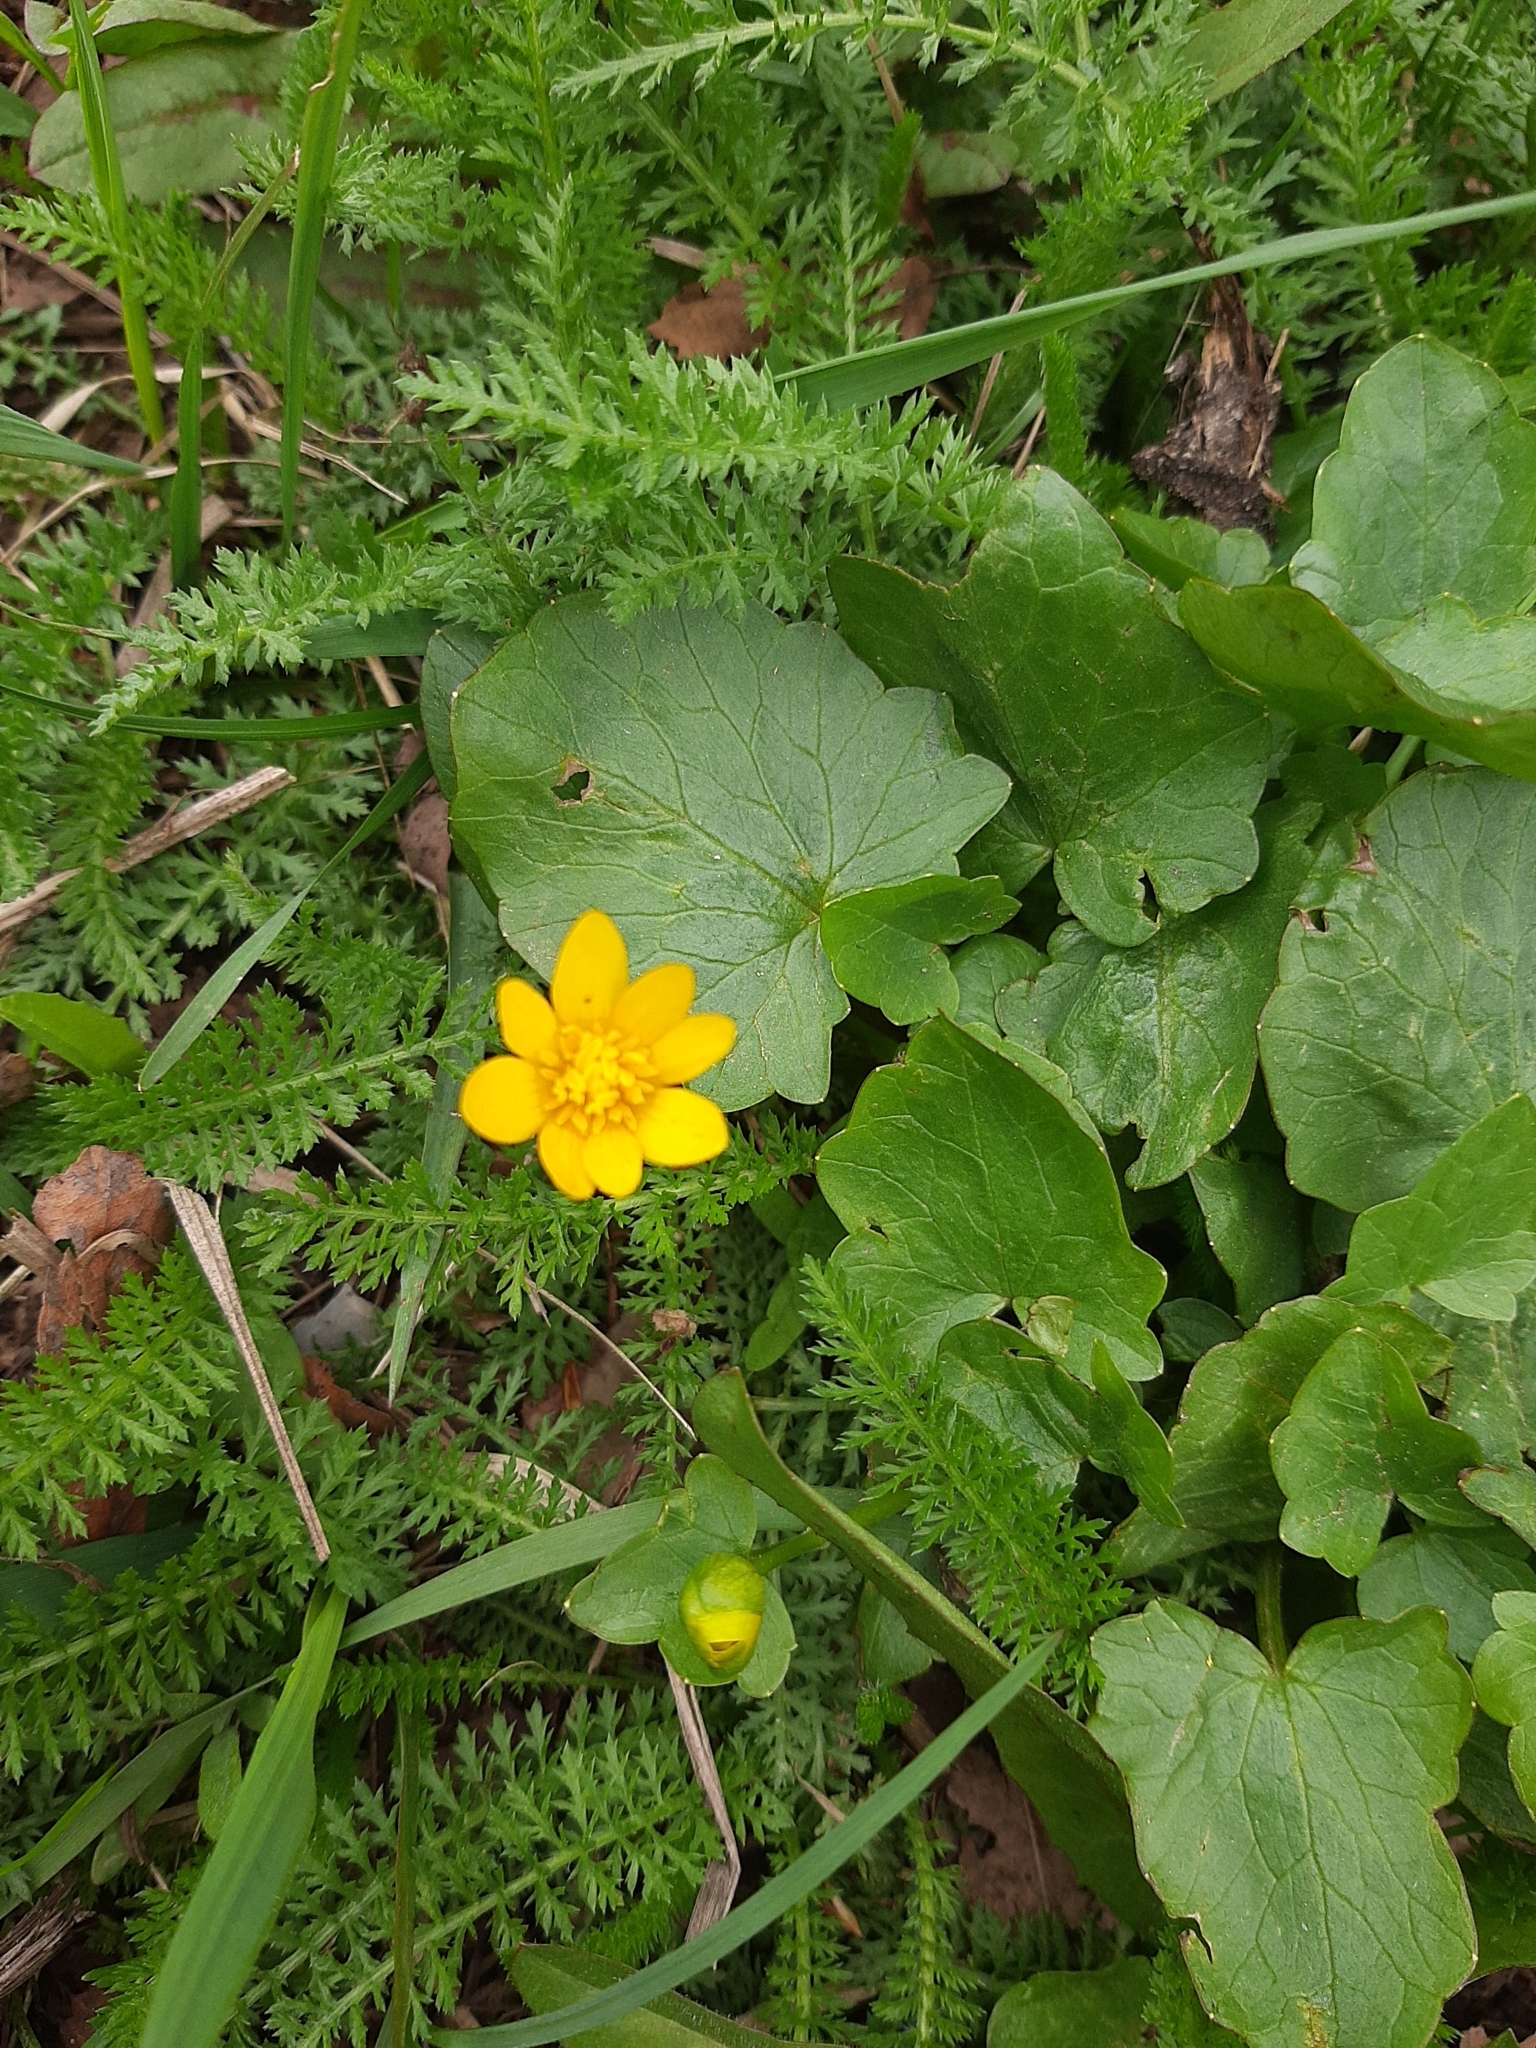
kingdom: Plantae
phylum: Tracheophyta
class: Magnoliopsida
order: Ranunculales
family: Ranunculaceae
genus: Ficaria
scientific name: Ficaria verna
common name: Lesser celandine
